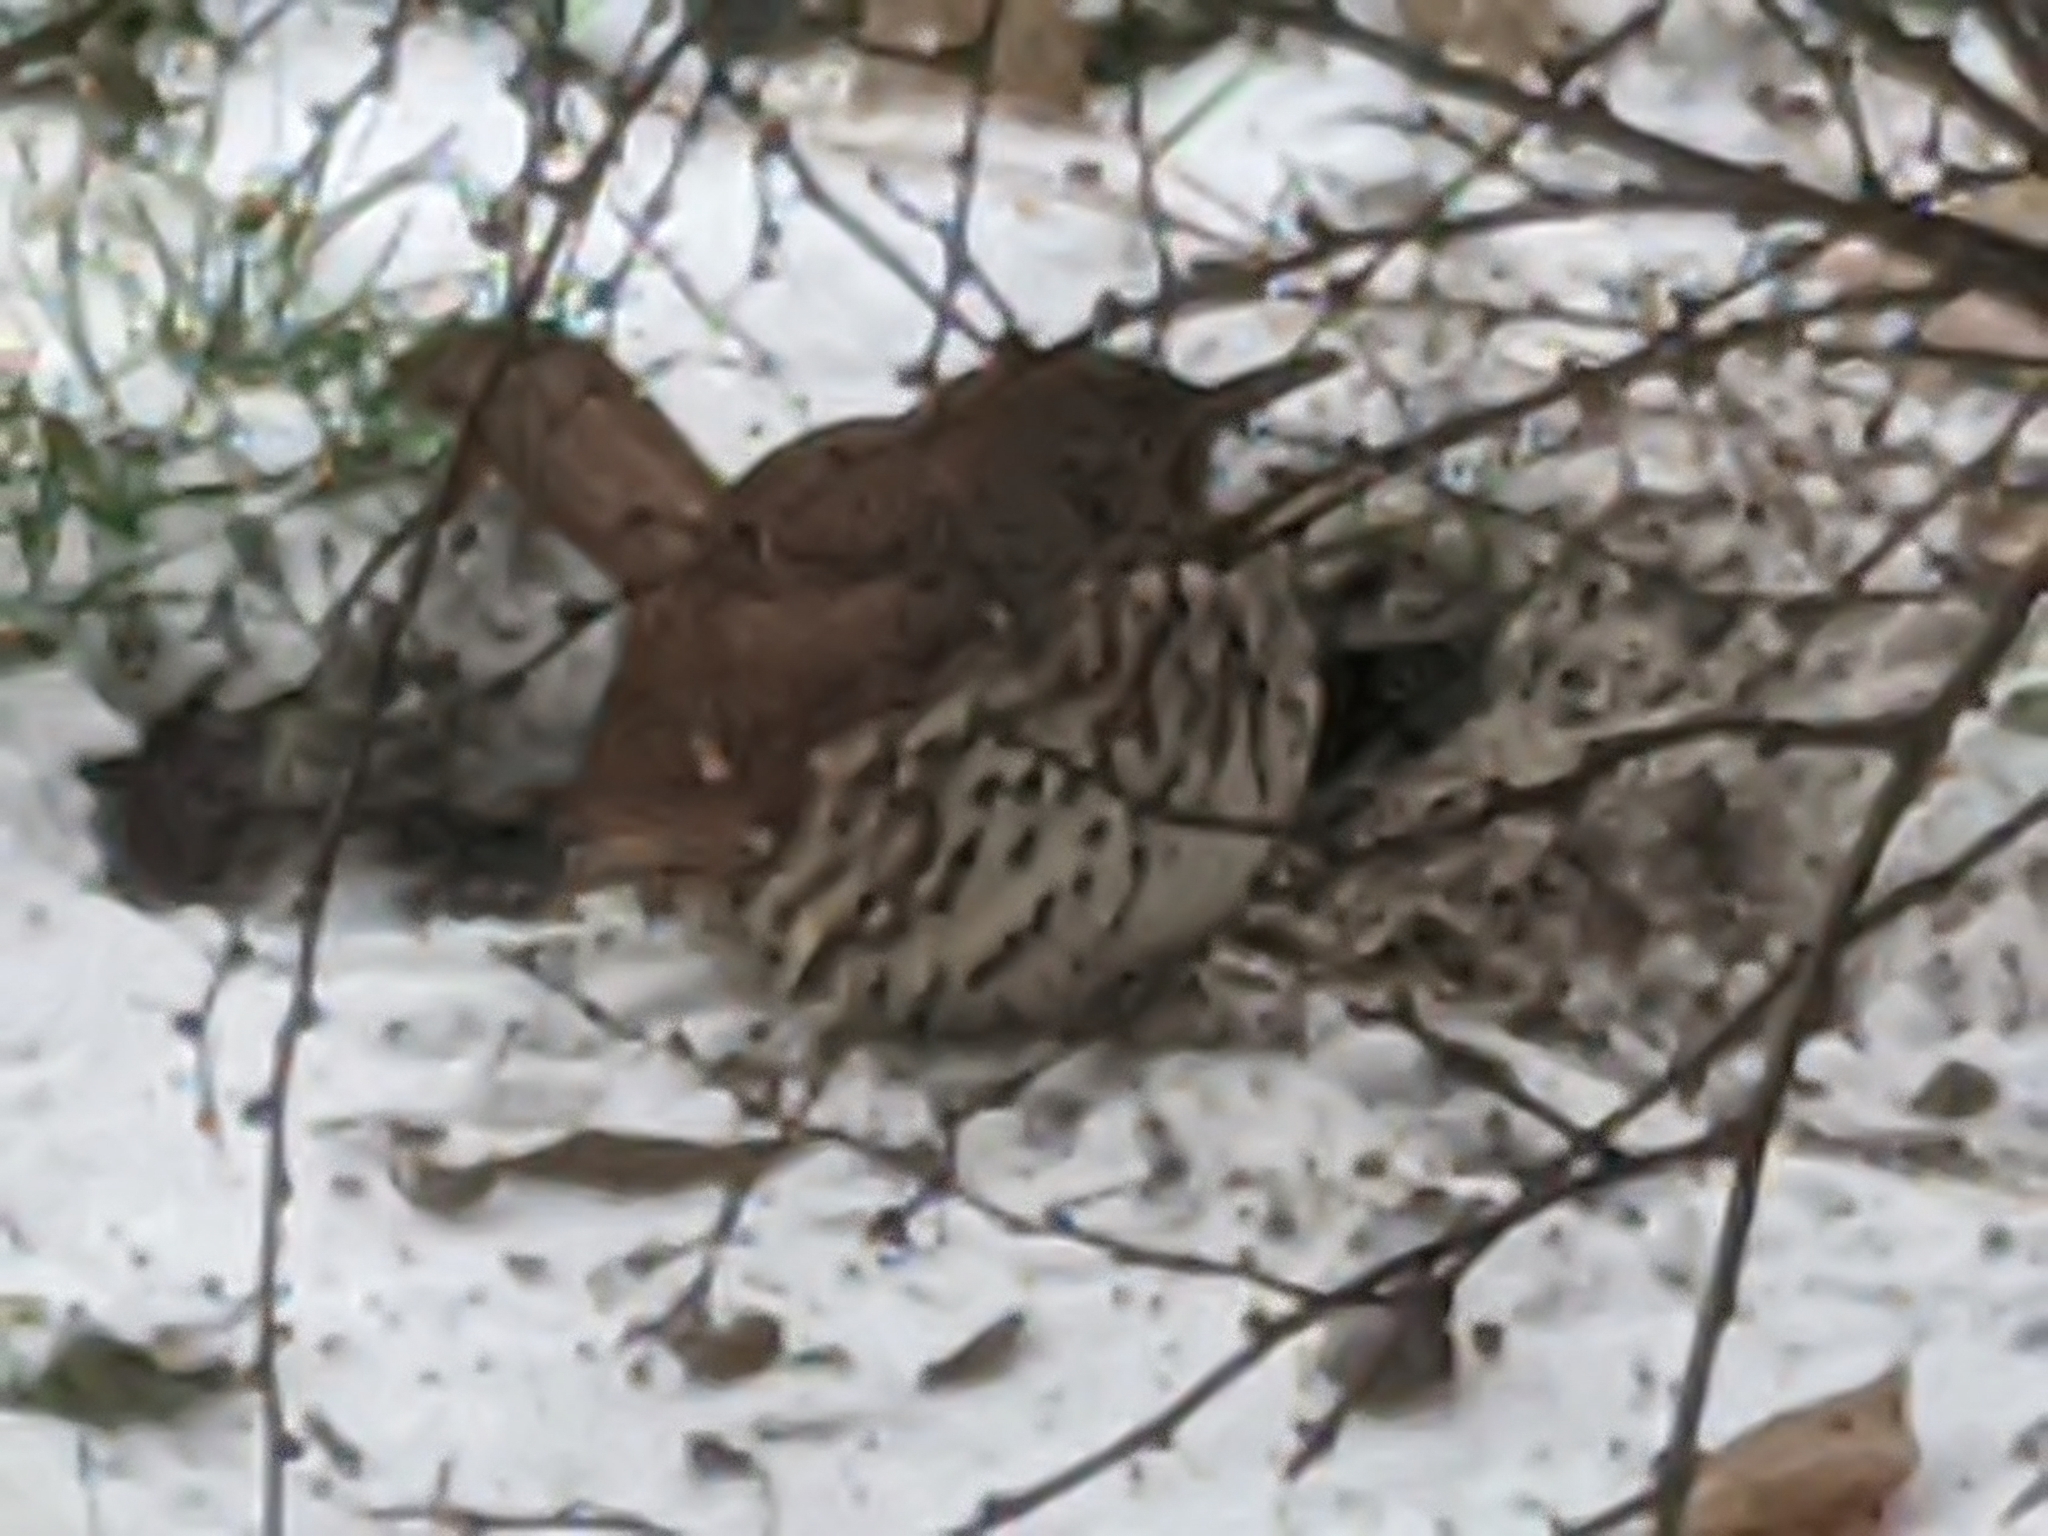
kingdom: Animalia
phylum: Chordata
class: Aves
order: Passeriformes
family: Mimidae
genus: Toxostoma
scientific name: Toxostoma rufum
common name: Brown thrasher
